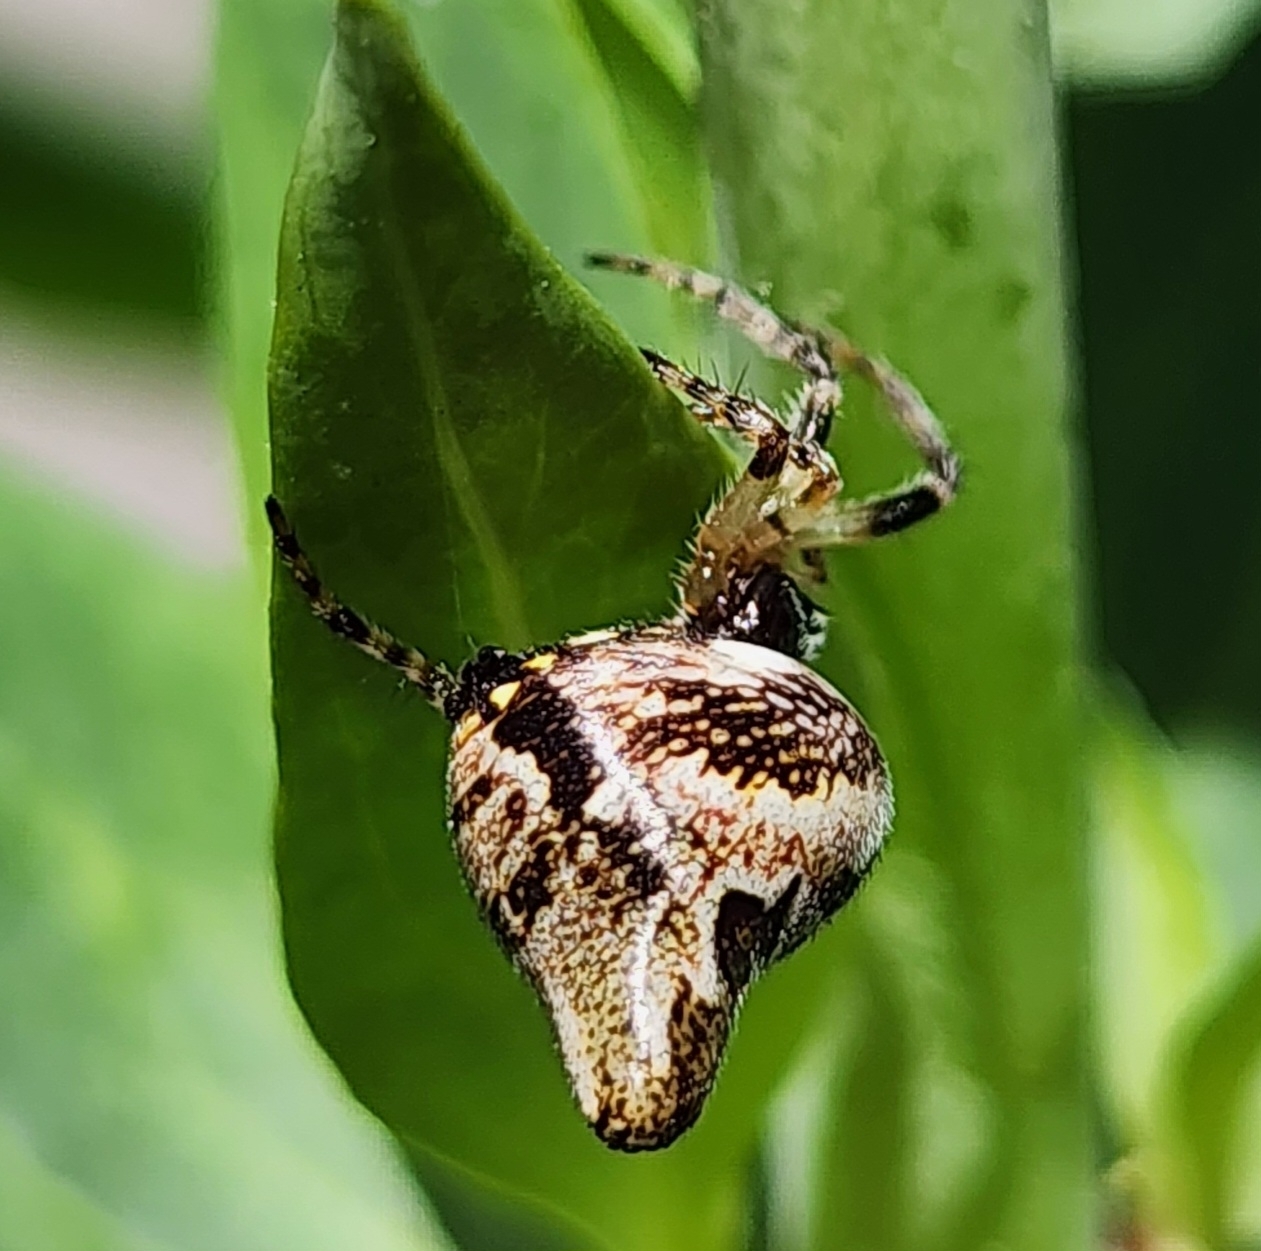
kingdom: Animalia
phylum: Arthropoda
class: Arachnida
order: Araneae
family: Araneidae
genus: Cyclosa
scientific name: Cyclosa conica
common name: Conical trashline orbweaver
